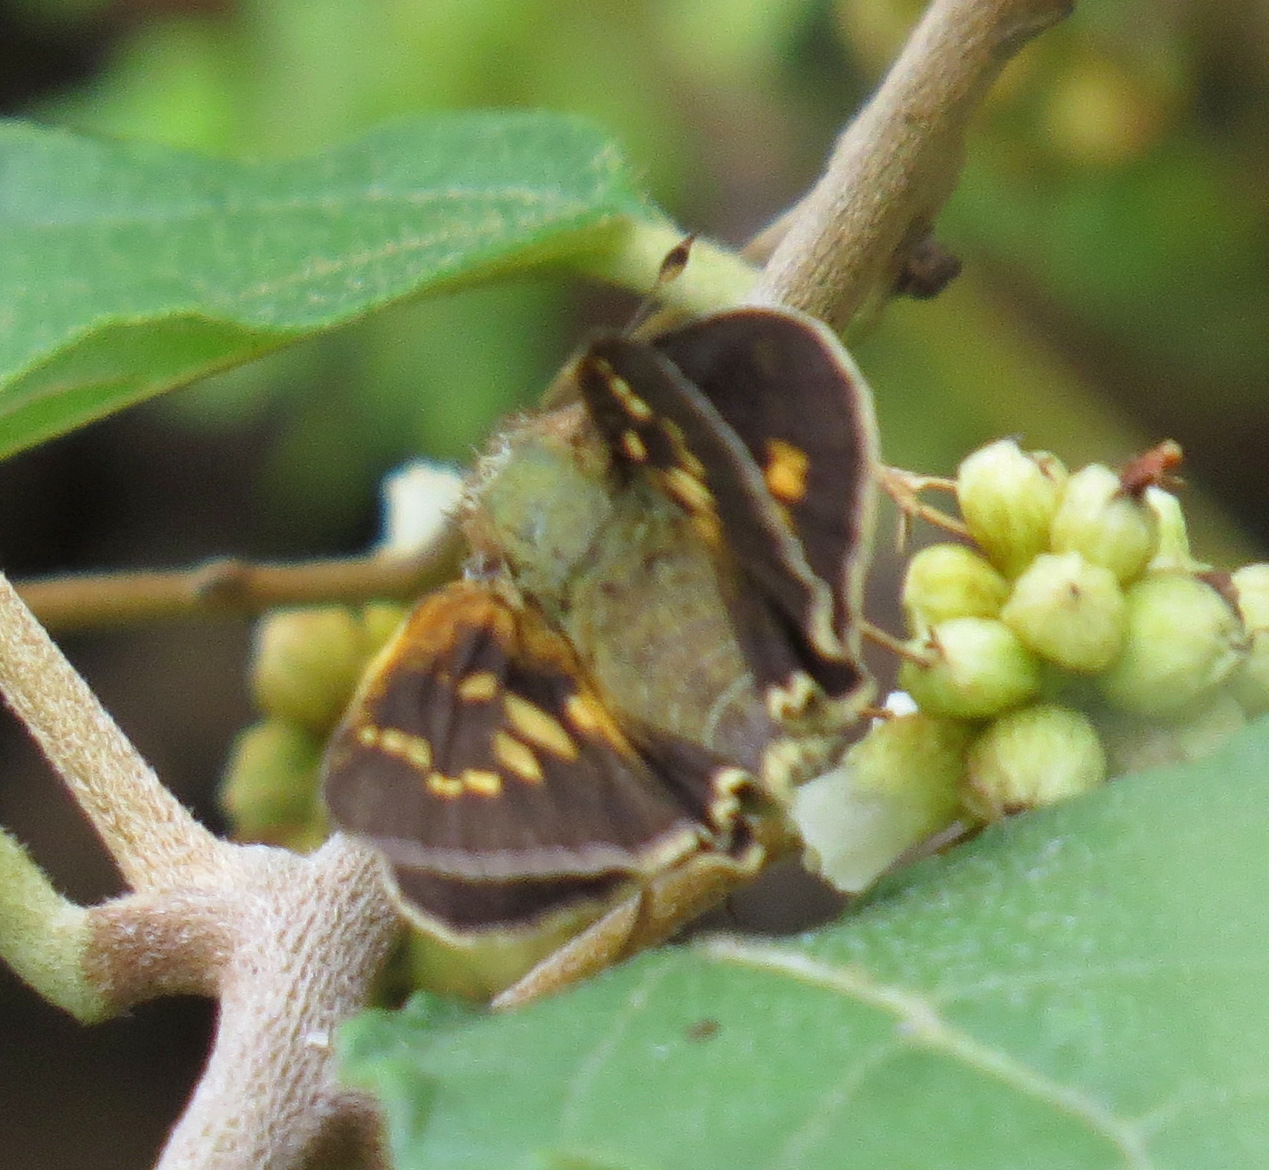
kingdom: Animalia
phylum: Arthropoda
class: Insecta
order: Lepidoptera
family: Hesperiidae
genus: Atalopedes
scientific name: Atalopedes mesogramma
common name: Mesogramma skipper
